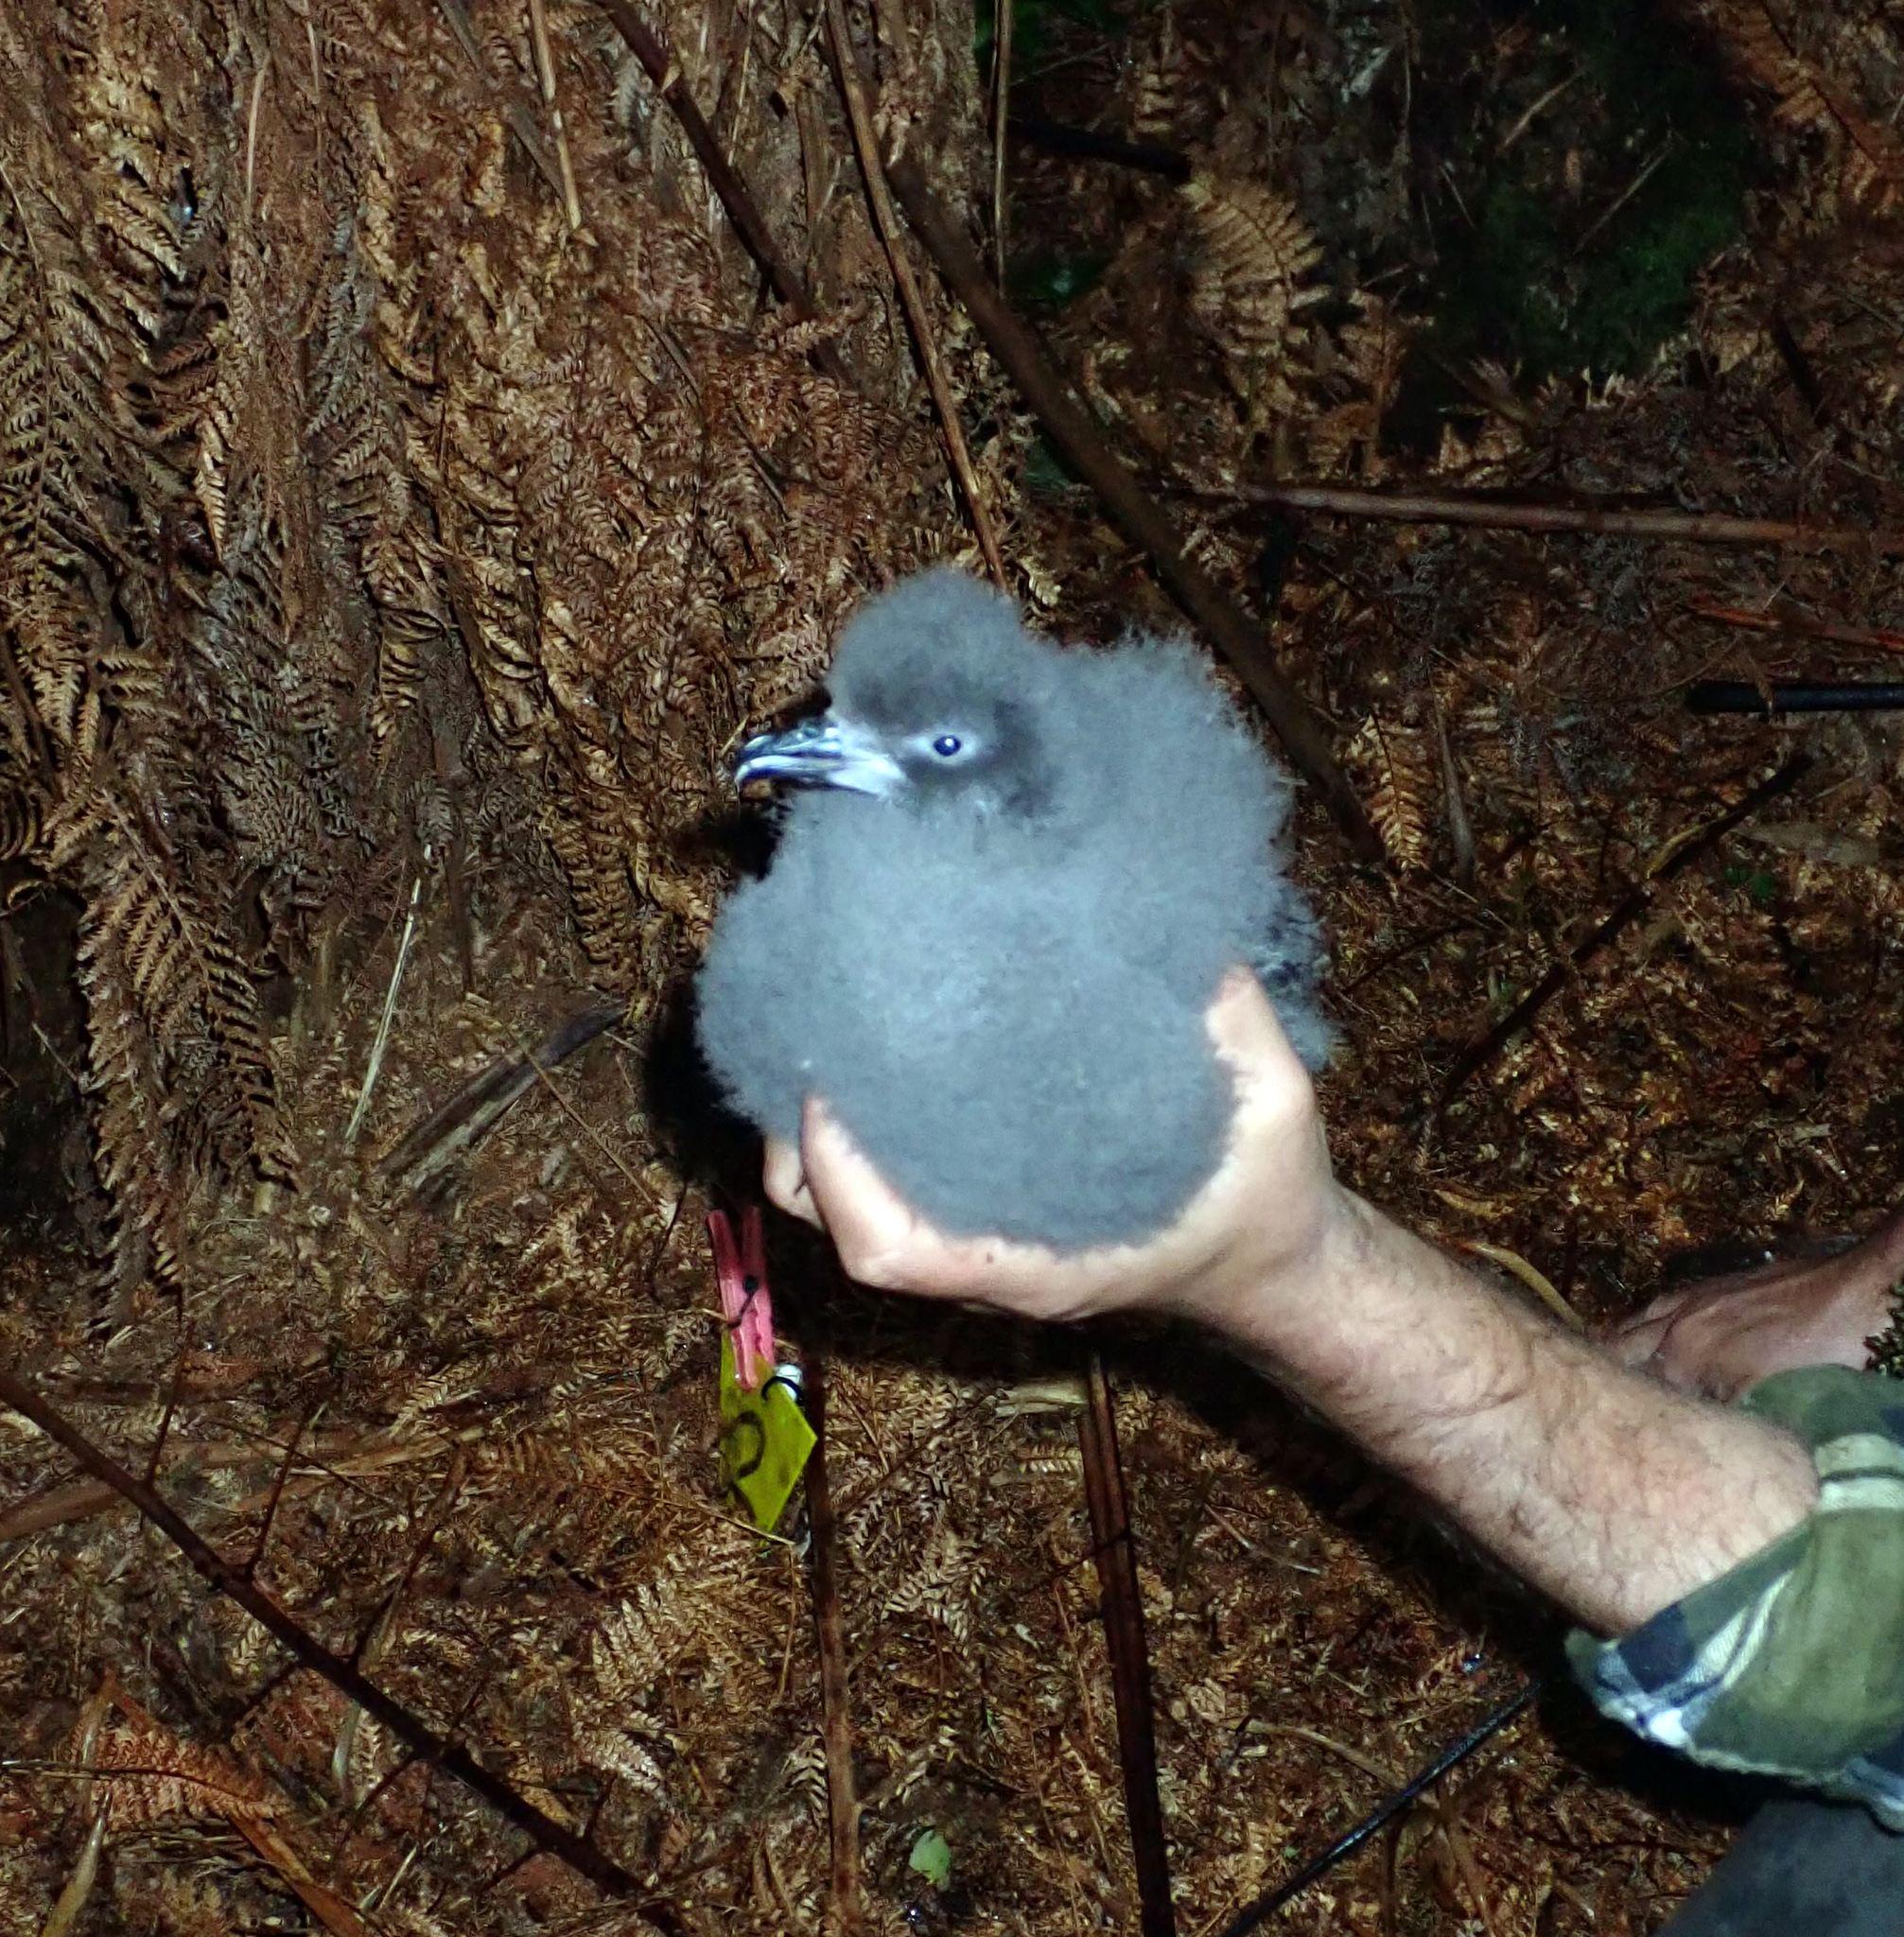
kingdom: Animalia
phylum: Chordata
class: Aves
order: Procellariiformes
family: Procellariidae
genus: Pterodroma
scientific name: Pterodroma axillaris
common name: Chatham petrel
